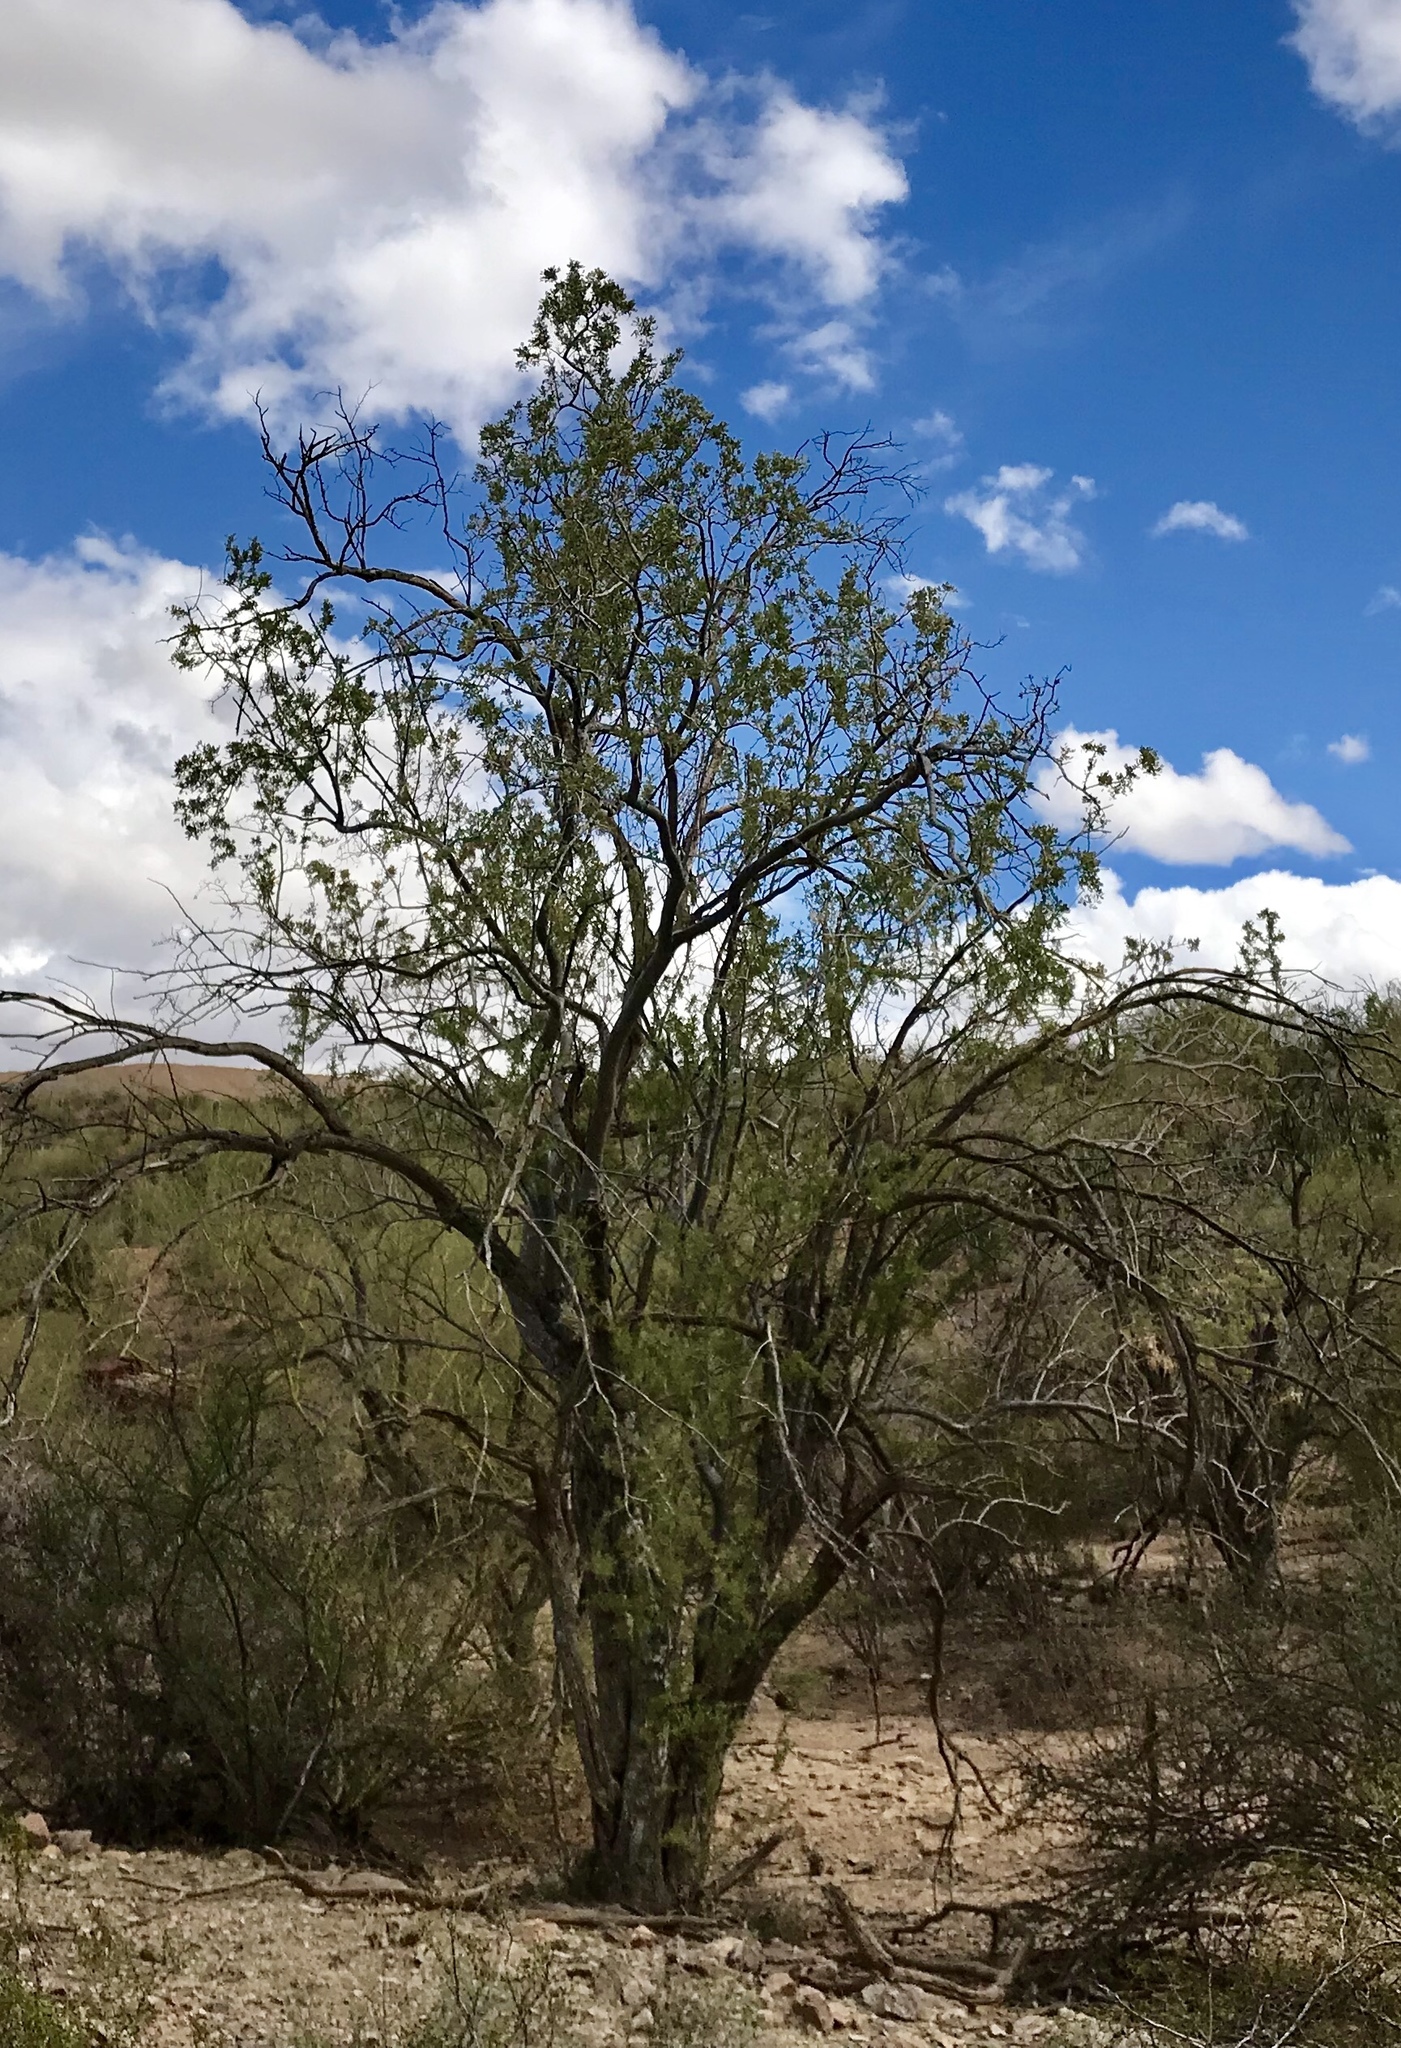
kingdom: Plantae
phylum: Tracheophyta
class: Magnoliopsida
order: Fabales
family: Fabaceae
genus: Olneya
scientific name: Olneya tesota
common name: Desert ironwood
